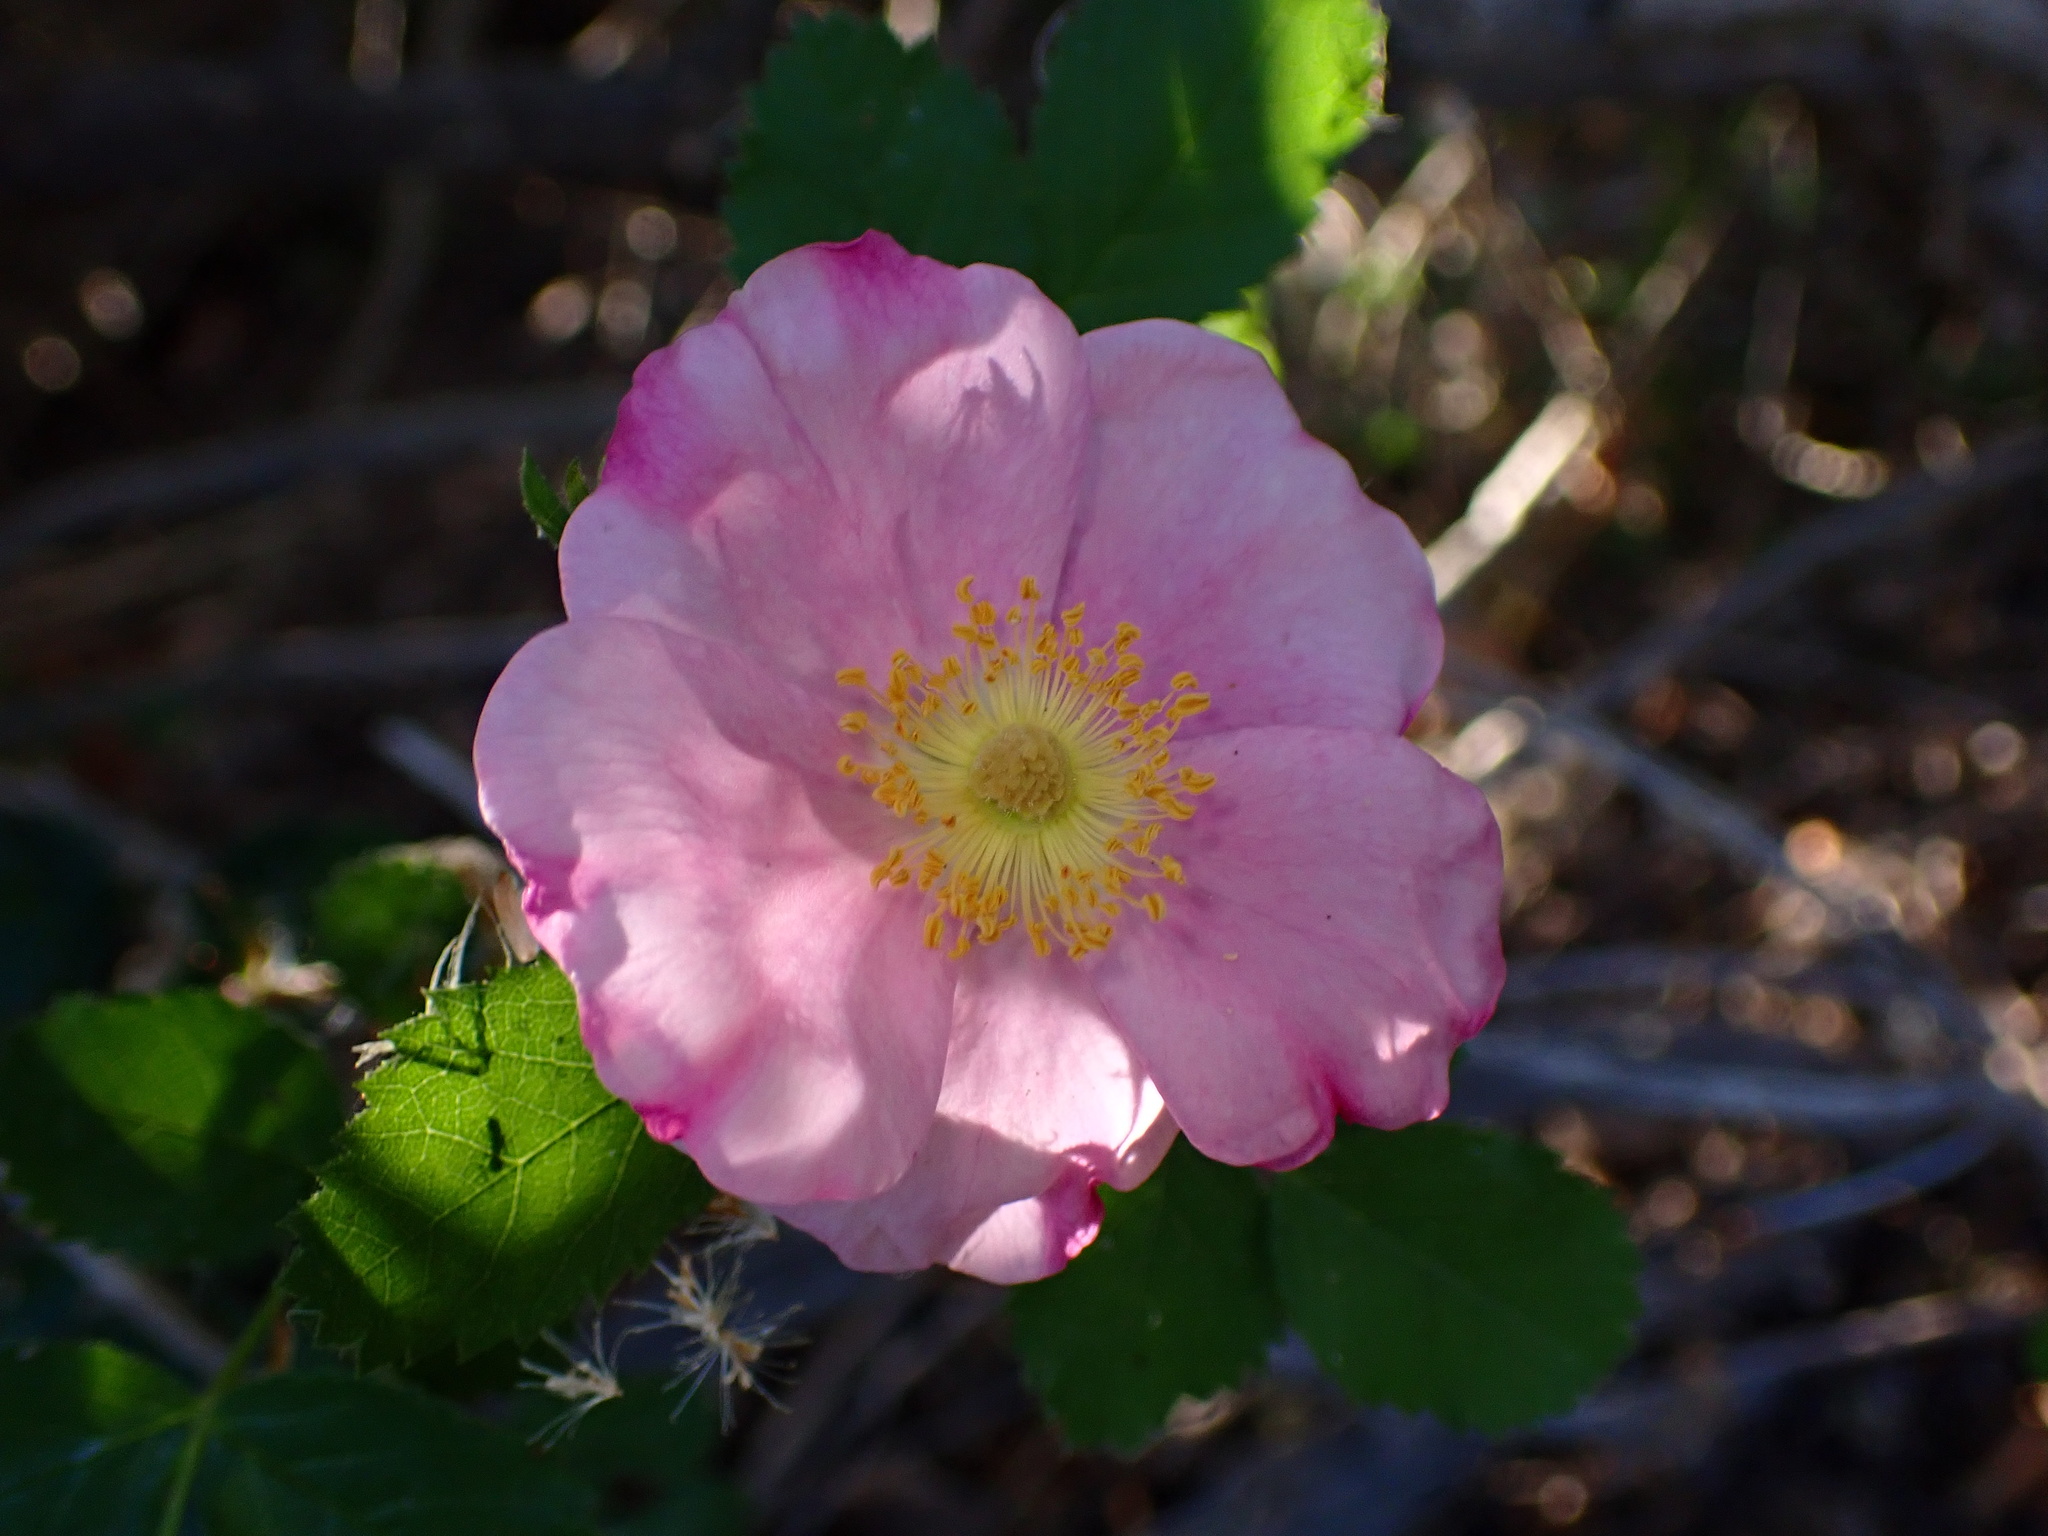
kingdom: Plantae
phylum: Tracheophyta
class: Magnoliopsida
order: Rosales
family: Rosaceae
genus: Rosa
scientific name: Rosa californica
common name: California rose
